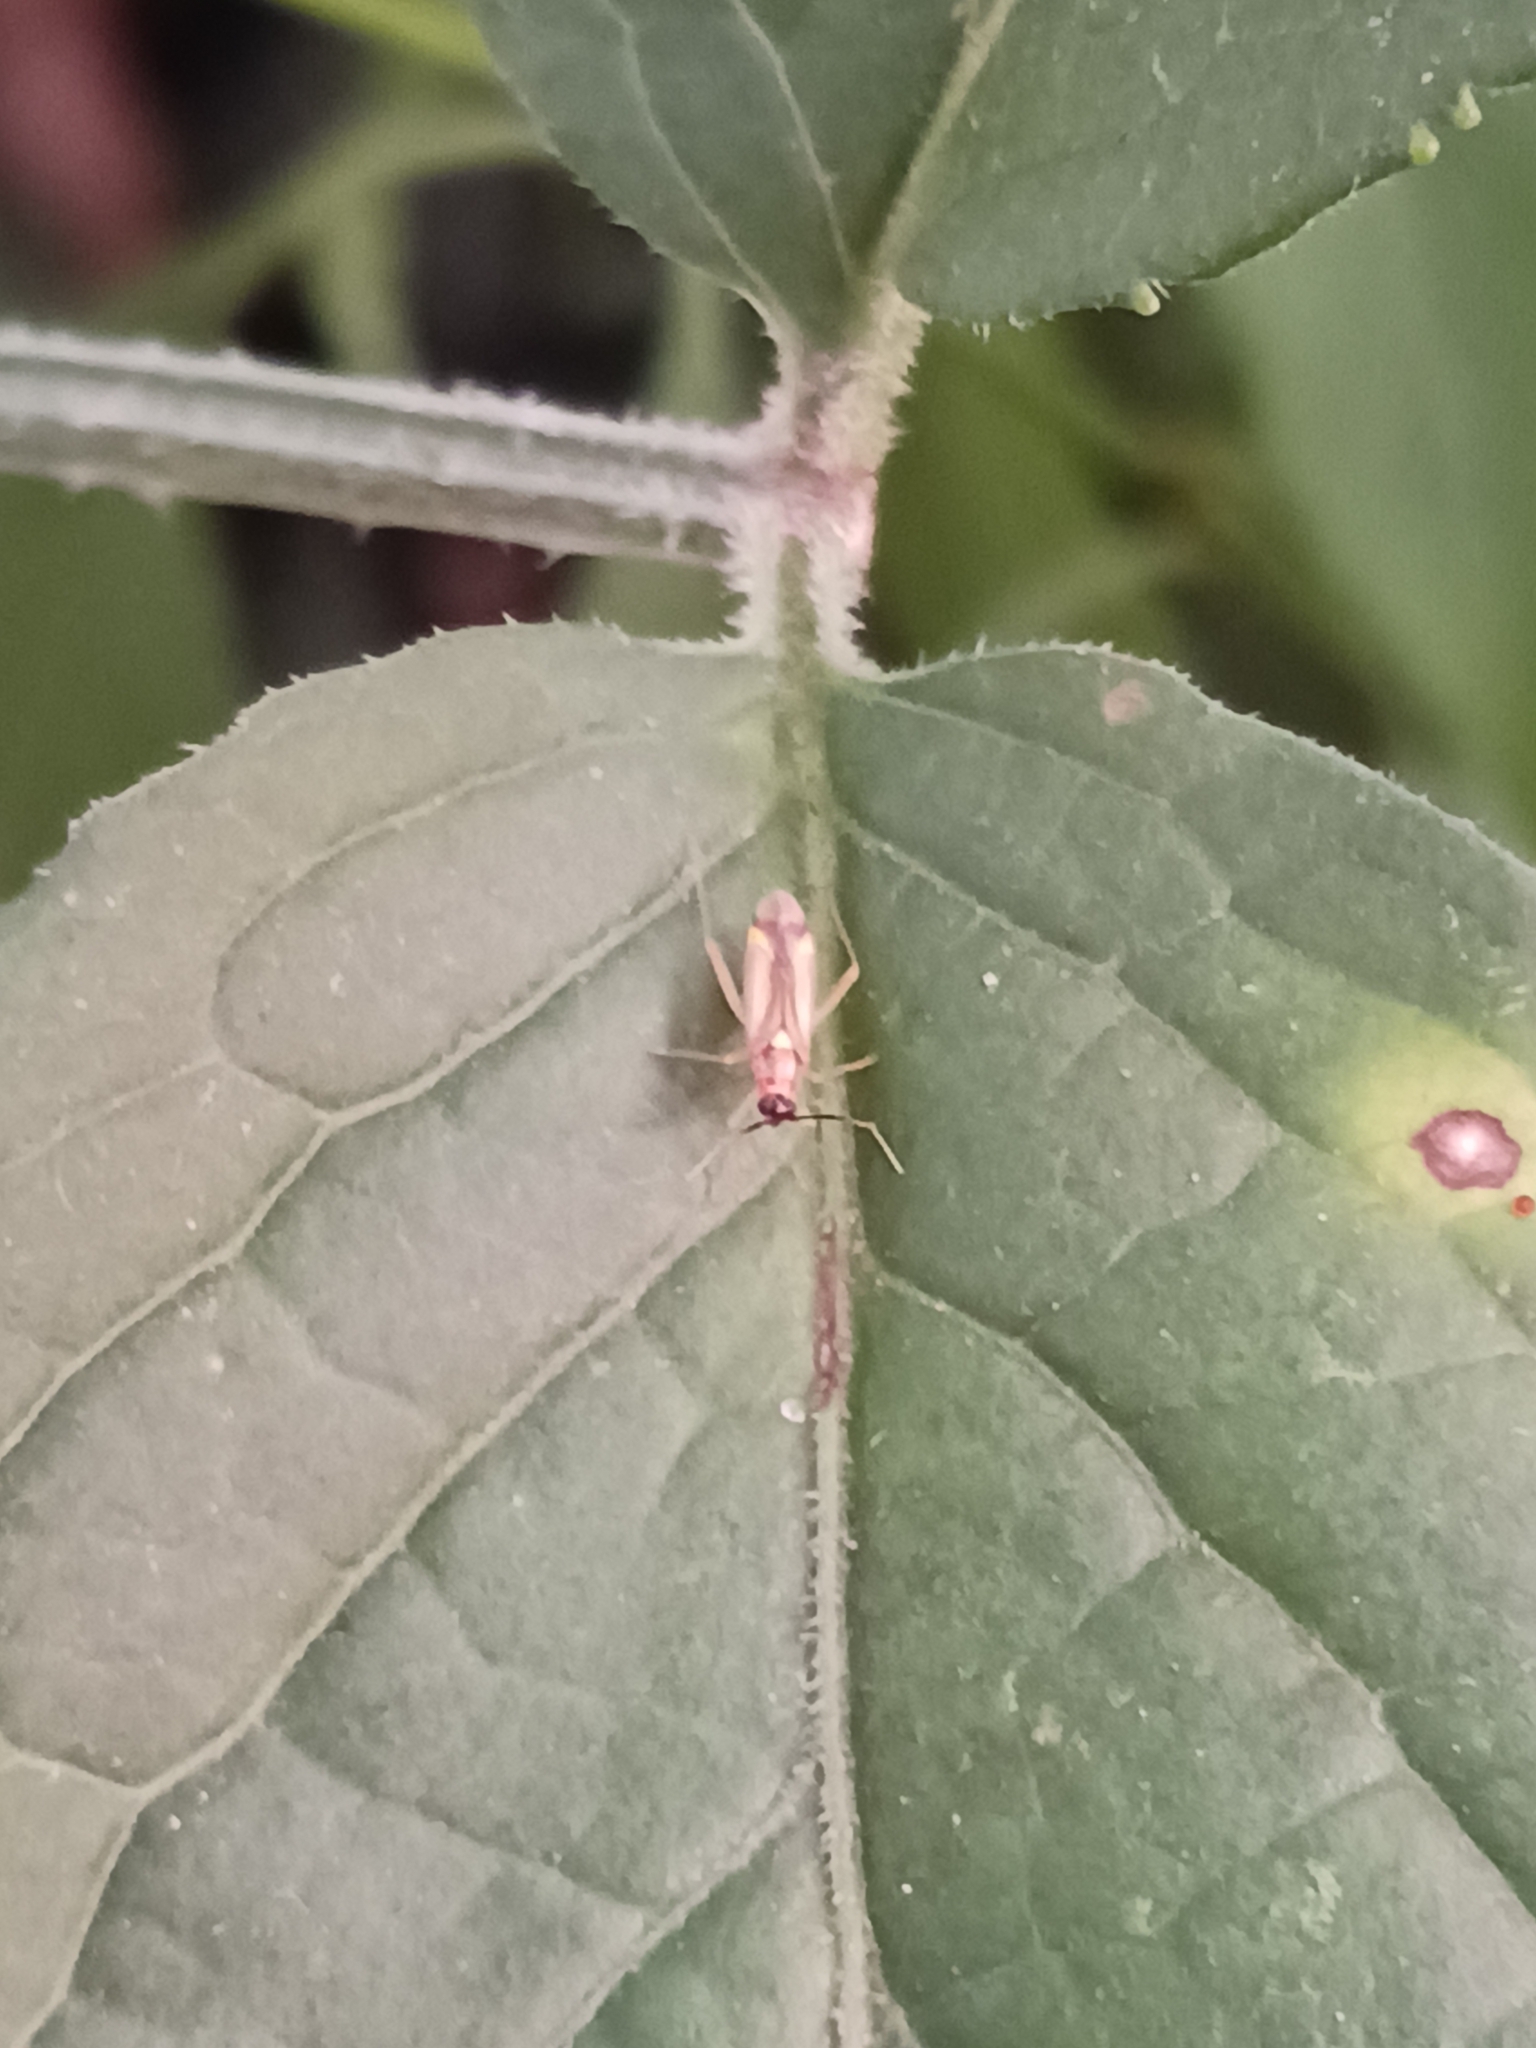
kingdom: Animalia
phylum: Arthropoda
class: Insecta
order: Hemiptera
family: Miridae
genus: Campyloneura
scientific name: Campyloneura virgula
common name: Predatory bug
